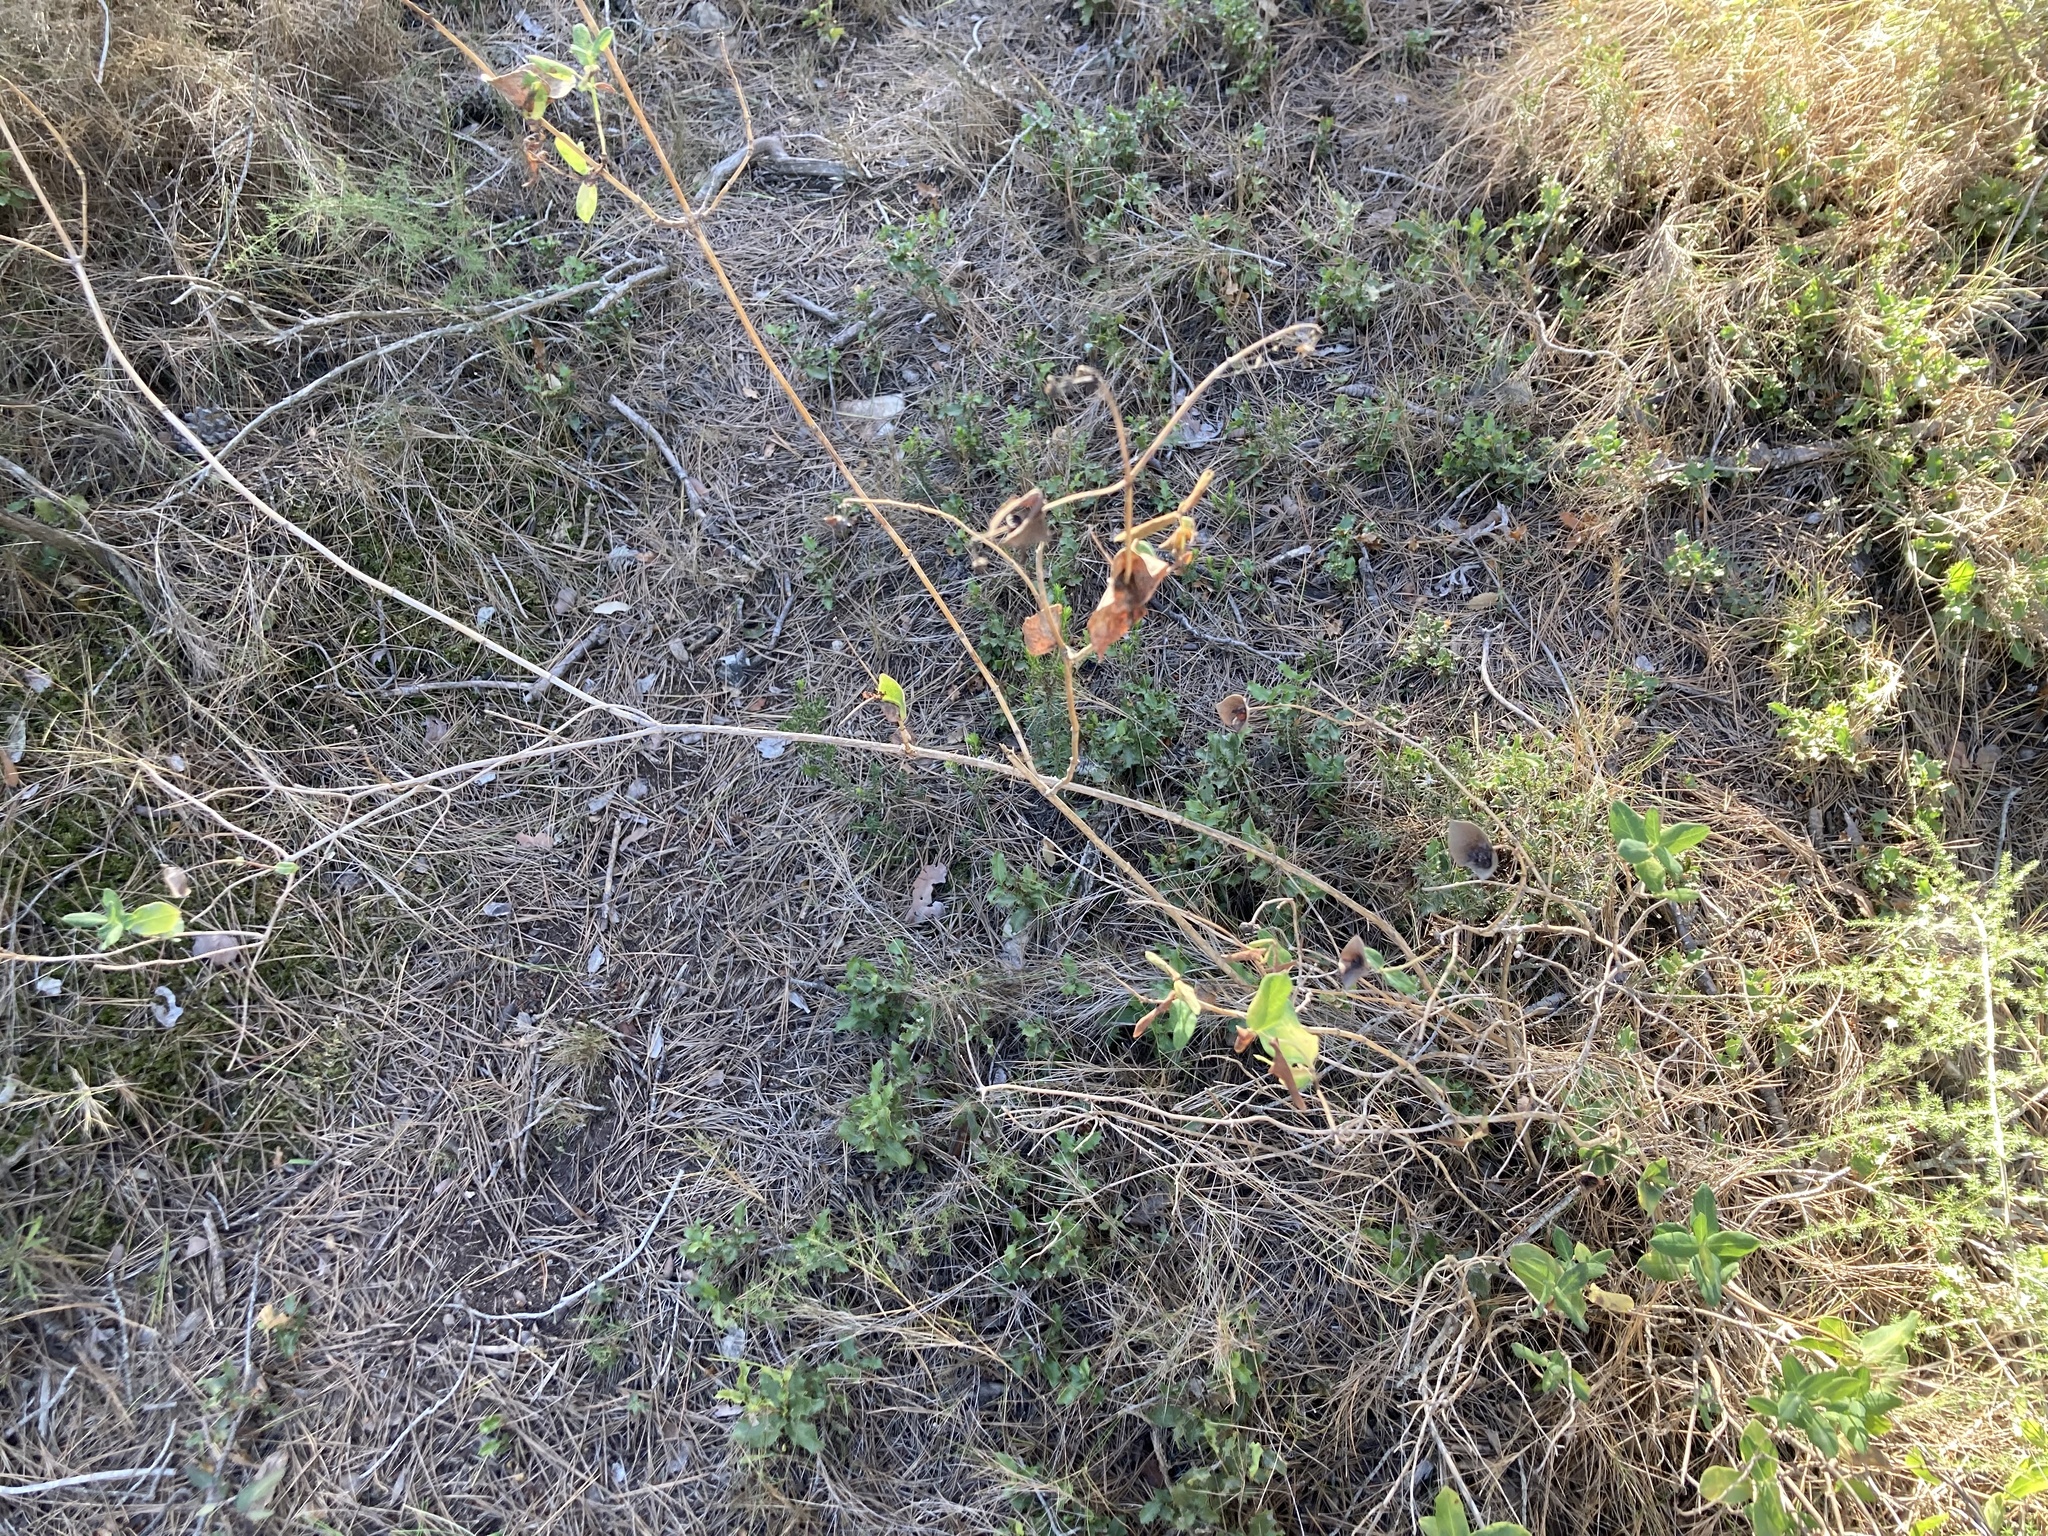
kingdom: Plantae
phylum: Tracheophyta
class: Magnoliopsida
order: Dipsacales
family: Caprifoliaceae
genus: Lonicera
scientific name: Lonicera implexa
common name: Minorca honeysuckle
